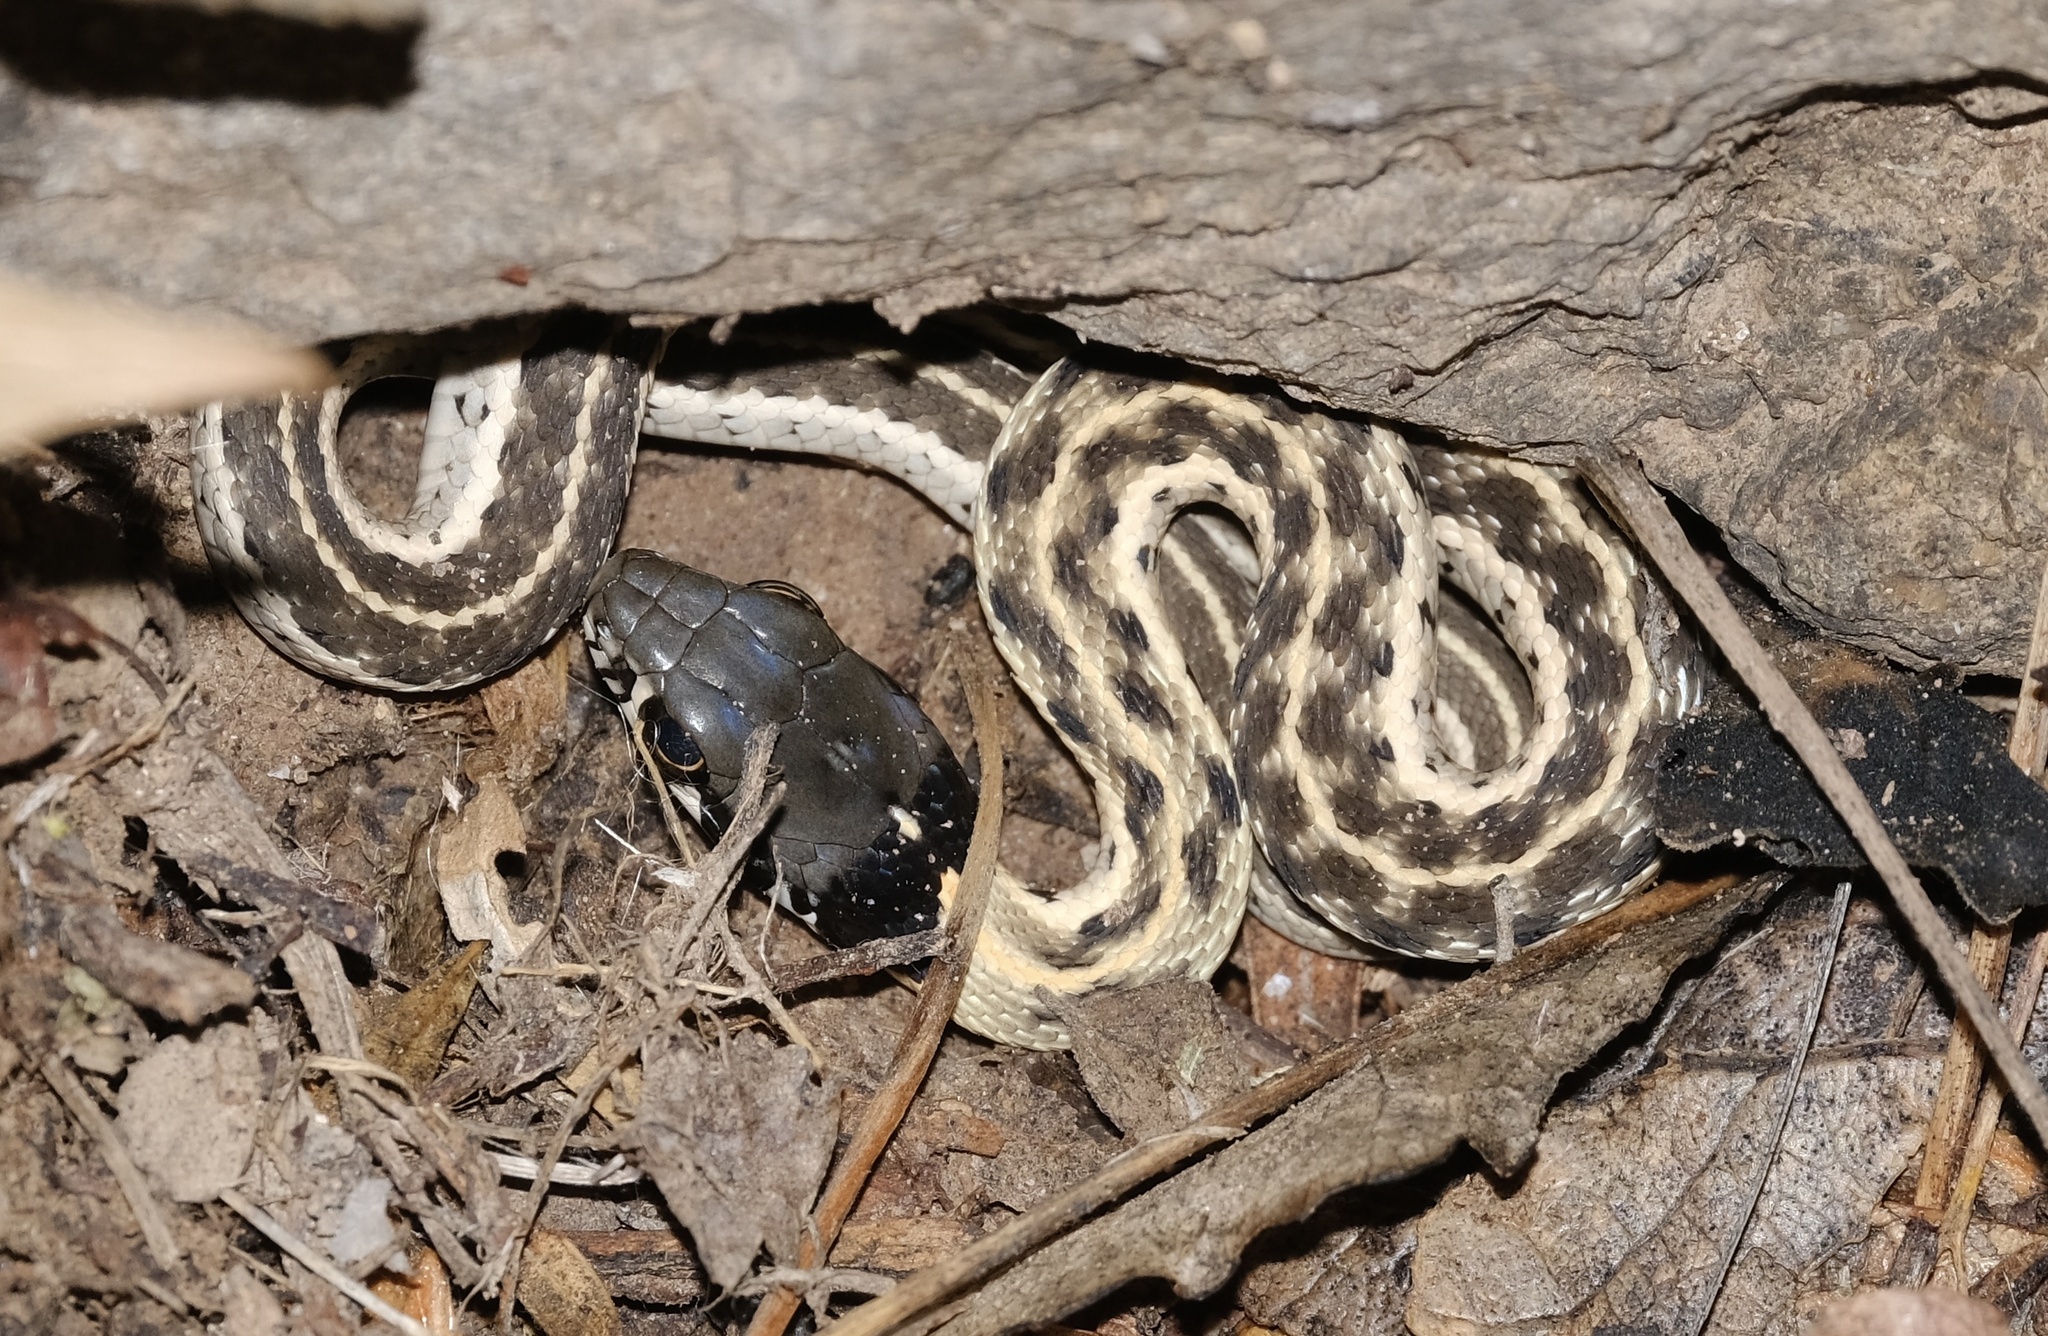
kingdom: Animalia
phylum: Chordata
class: Squamata
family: Colubridae
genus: Thamnophis
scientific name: Thamnophis cyrtopsis
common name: Black-necked gartersnake
